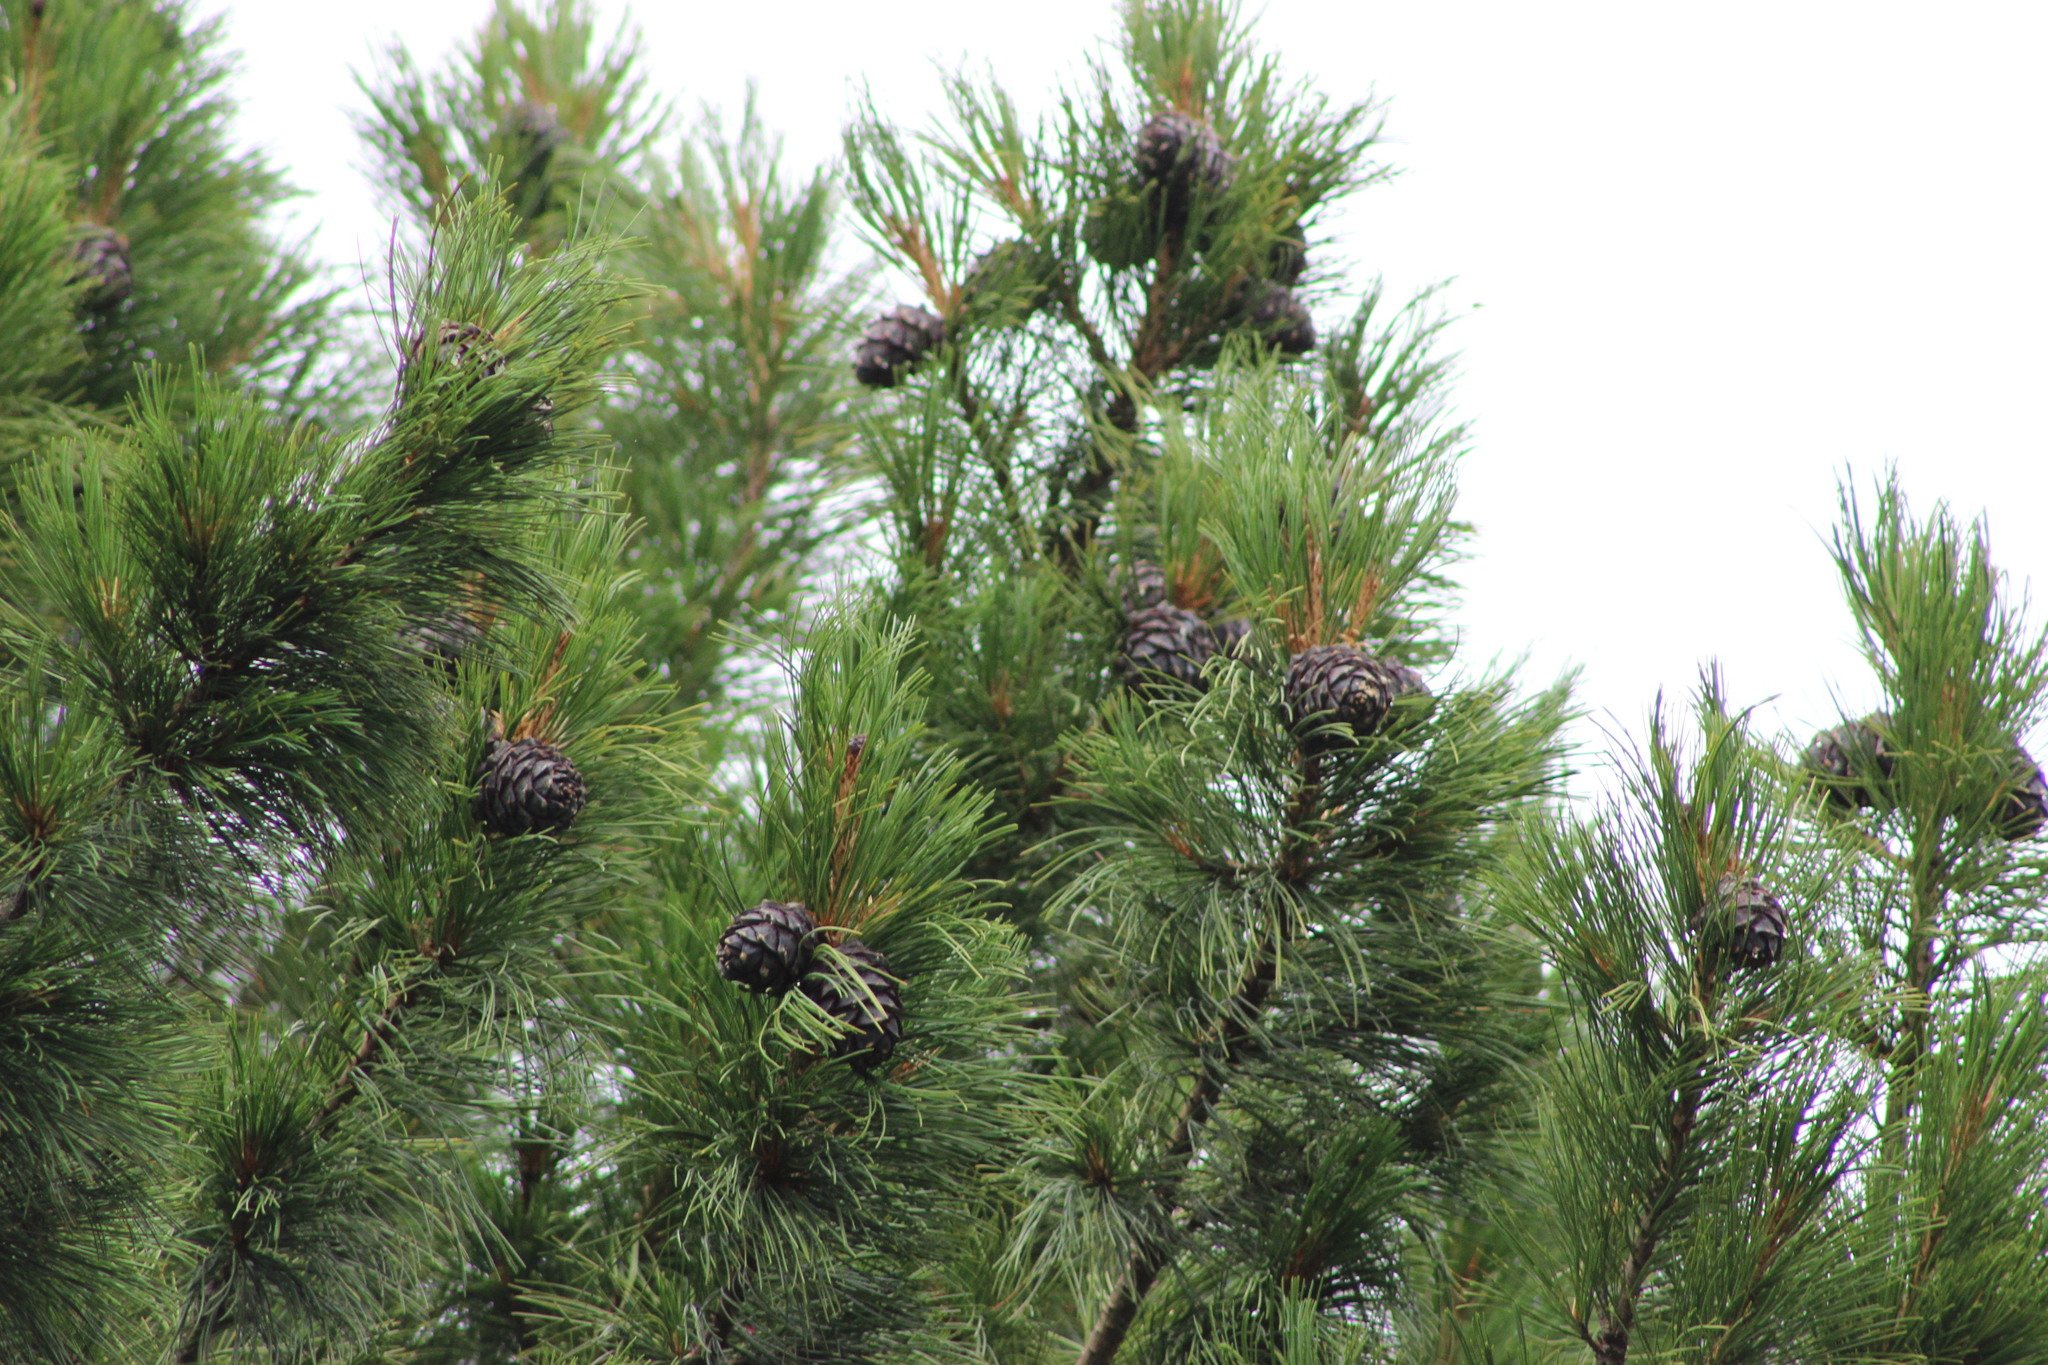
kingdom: Plantae
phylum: Tracheophyta
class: Pinopsida
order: Pinales
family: Pinaceae
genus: Pinus
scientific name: Pinus sibirica
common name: Siberian pine
